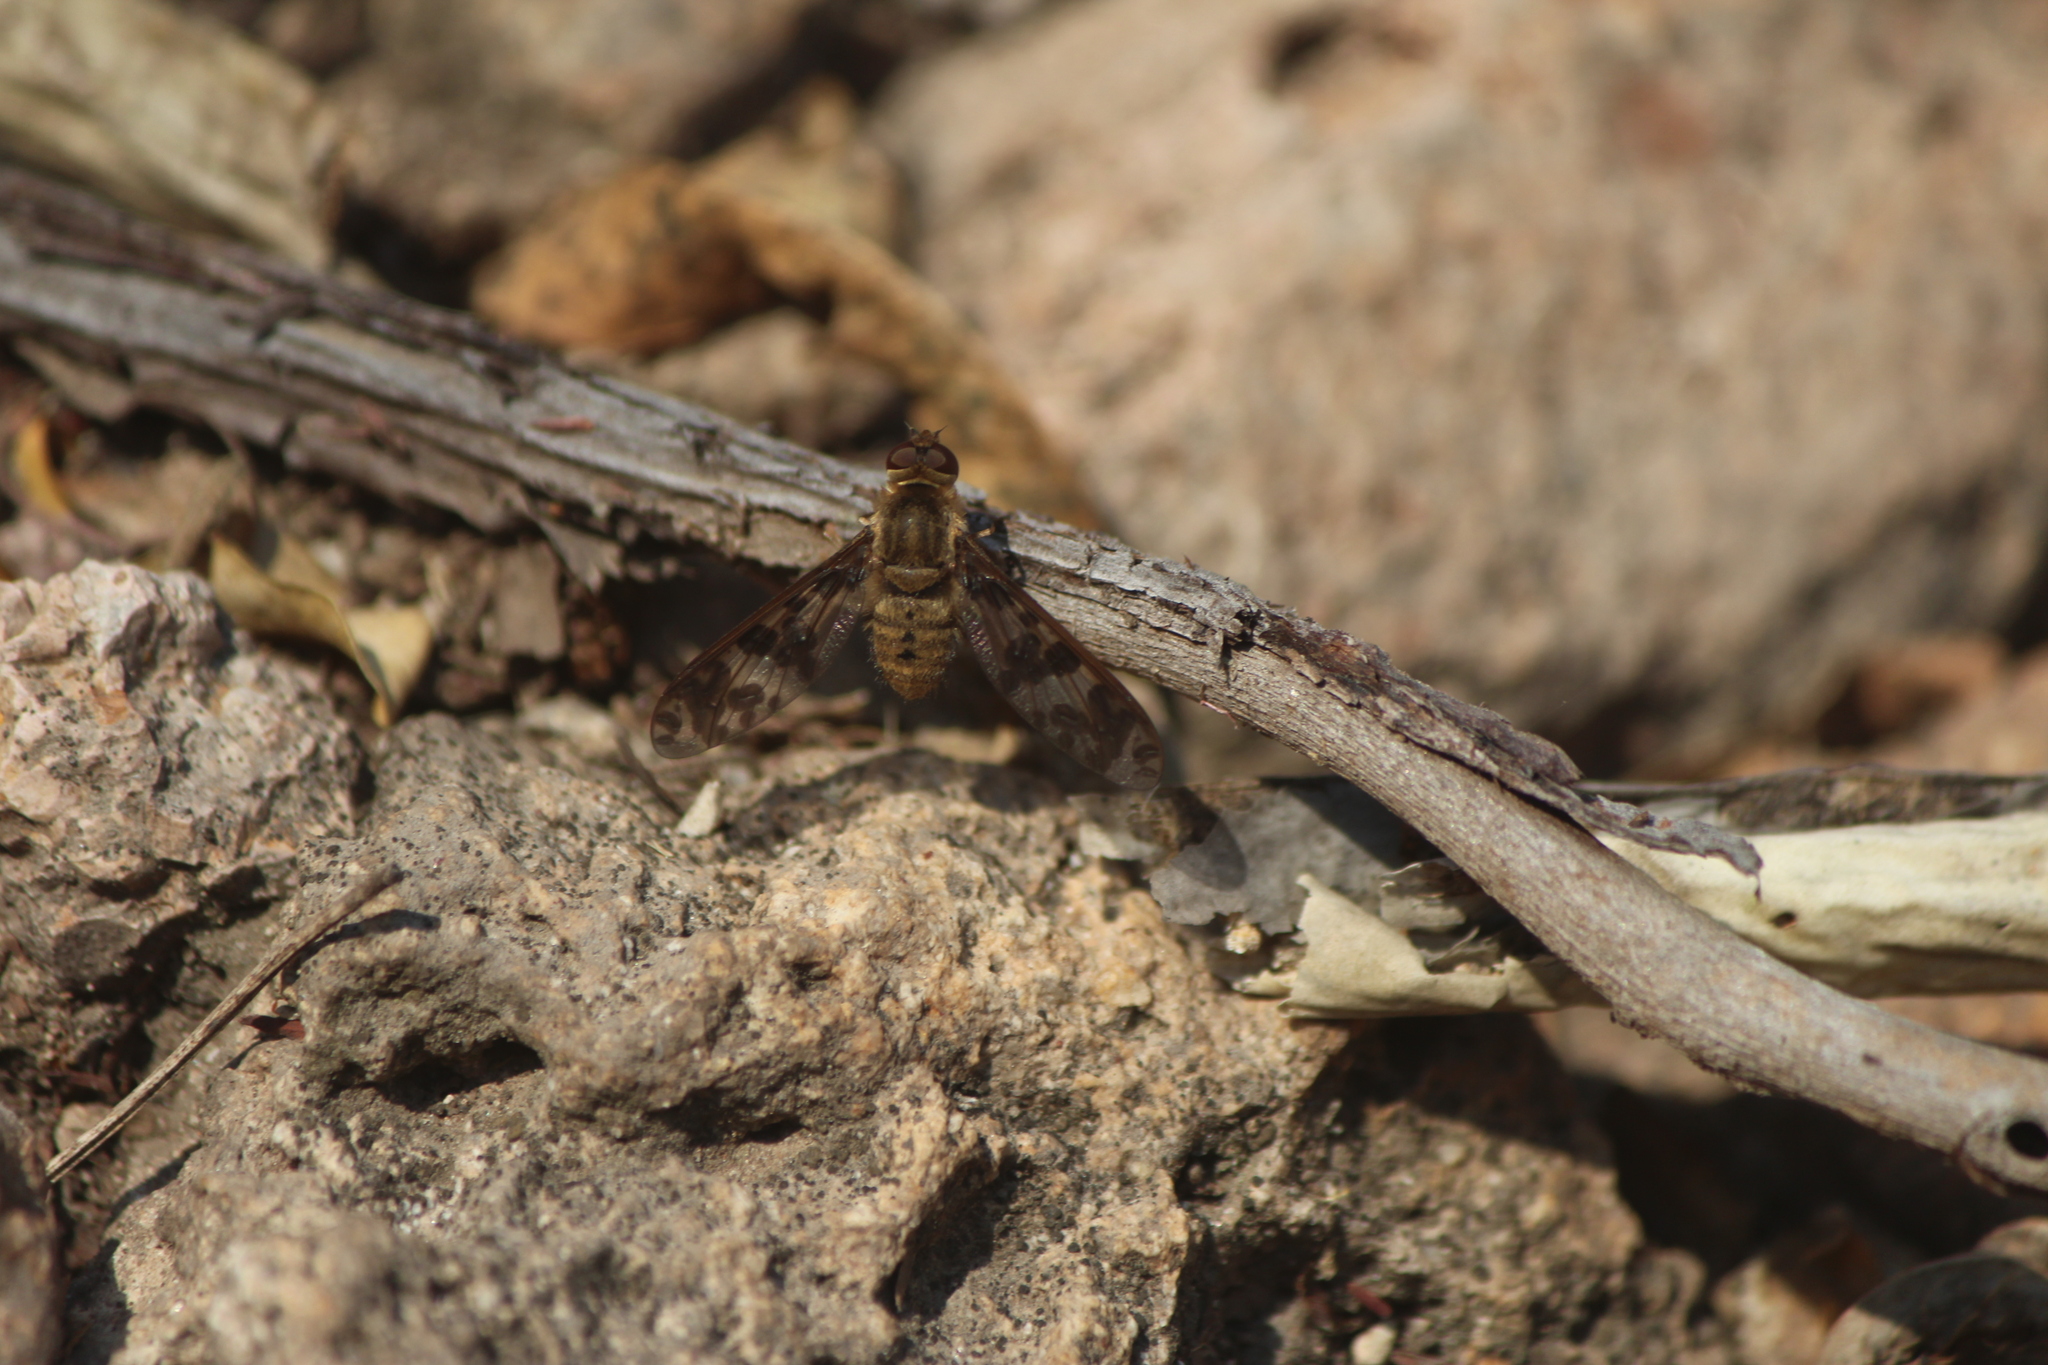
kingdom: Animalia
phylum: Arthropoda
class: Insecta
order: Diptera
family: Bombyliidae
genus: Dipalta
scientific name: Dipalta serpentina
